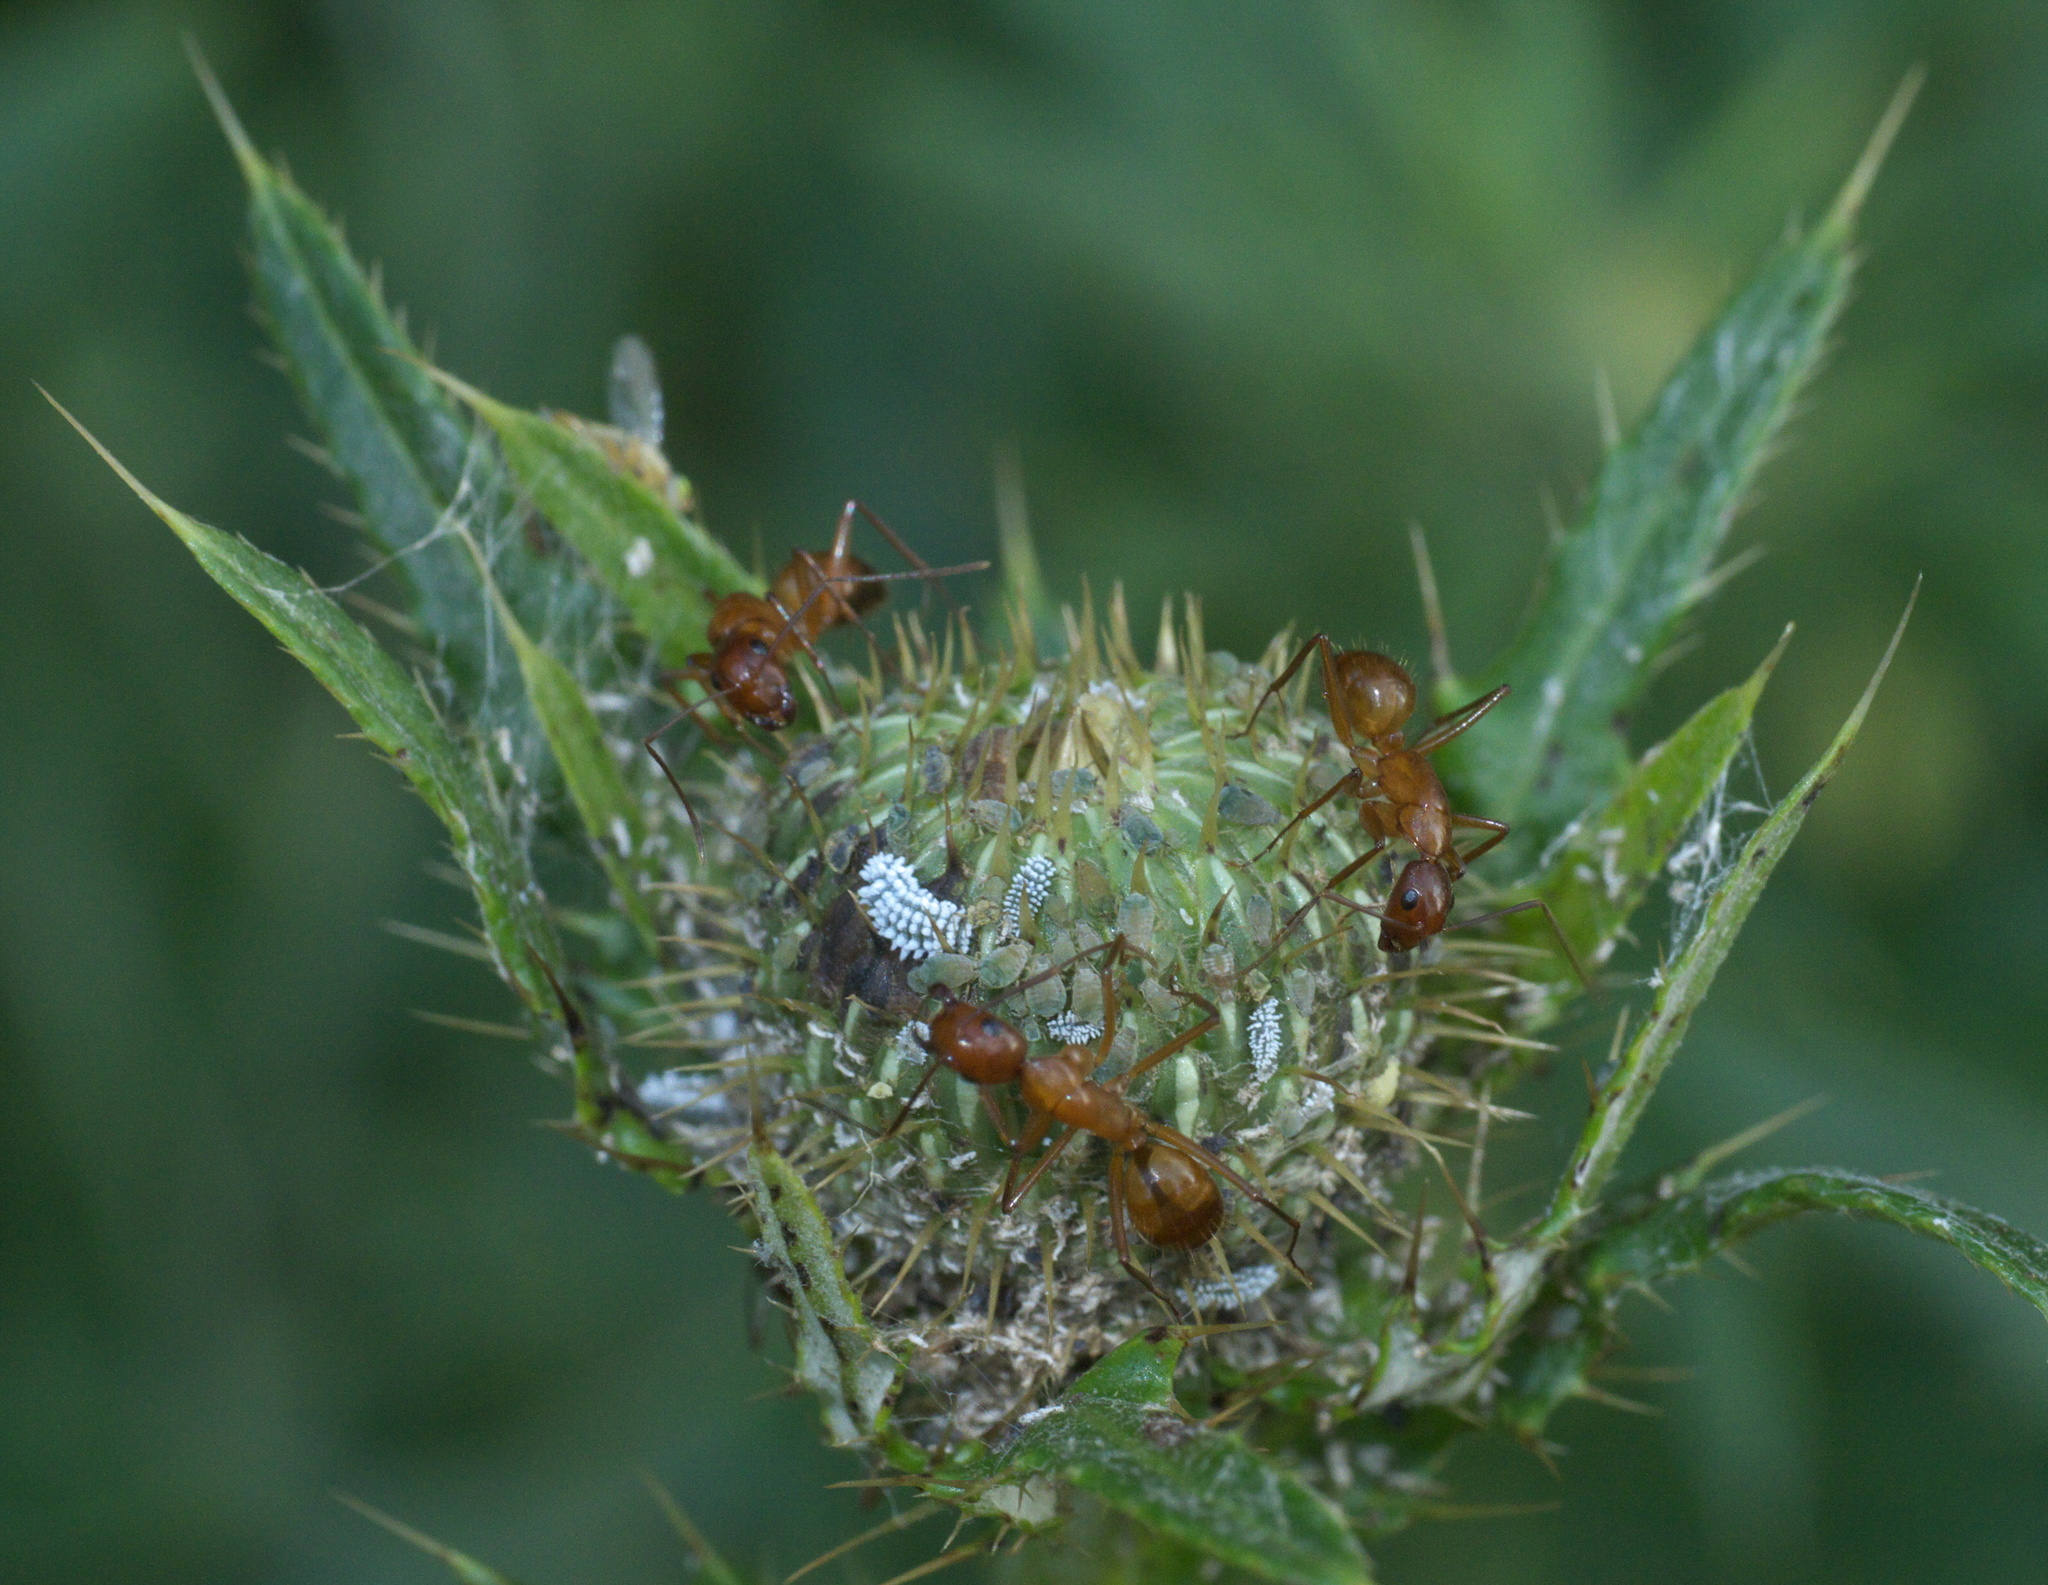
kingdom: Animalia
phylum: Arthropoda
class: Insecta
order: Hymenoptera
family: Formicidae
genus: Camponotus
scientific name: Camponotus castaneus
